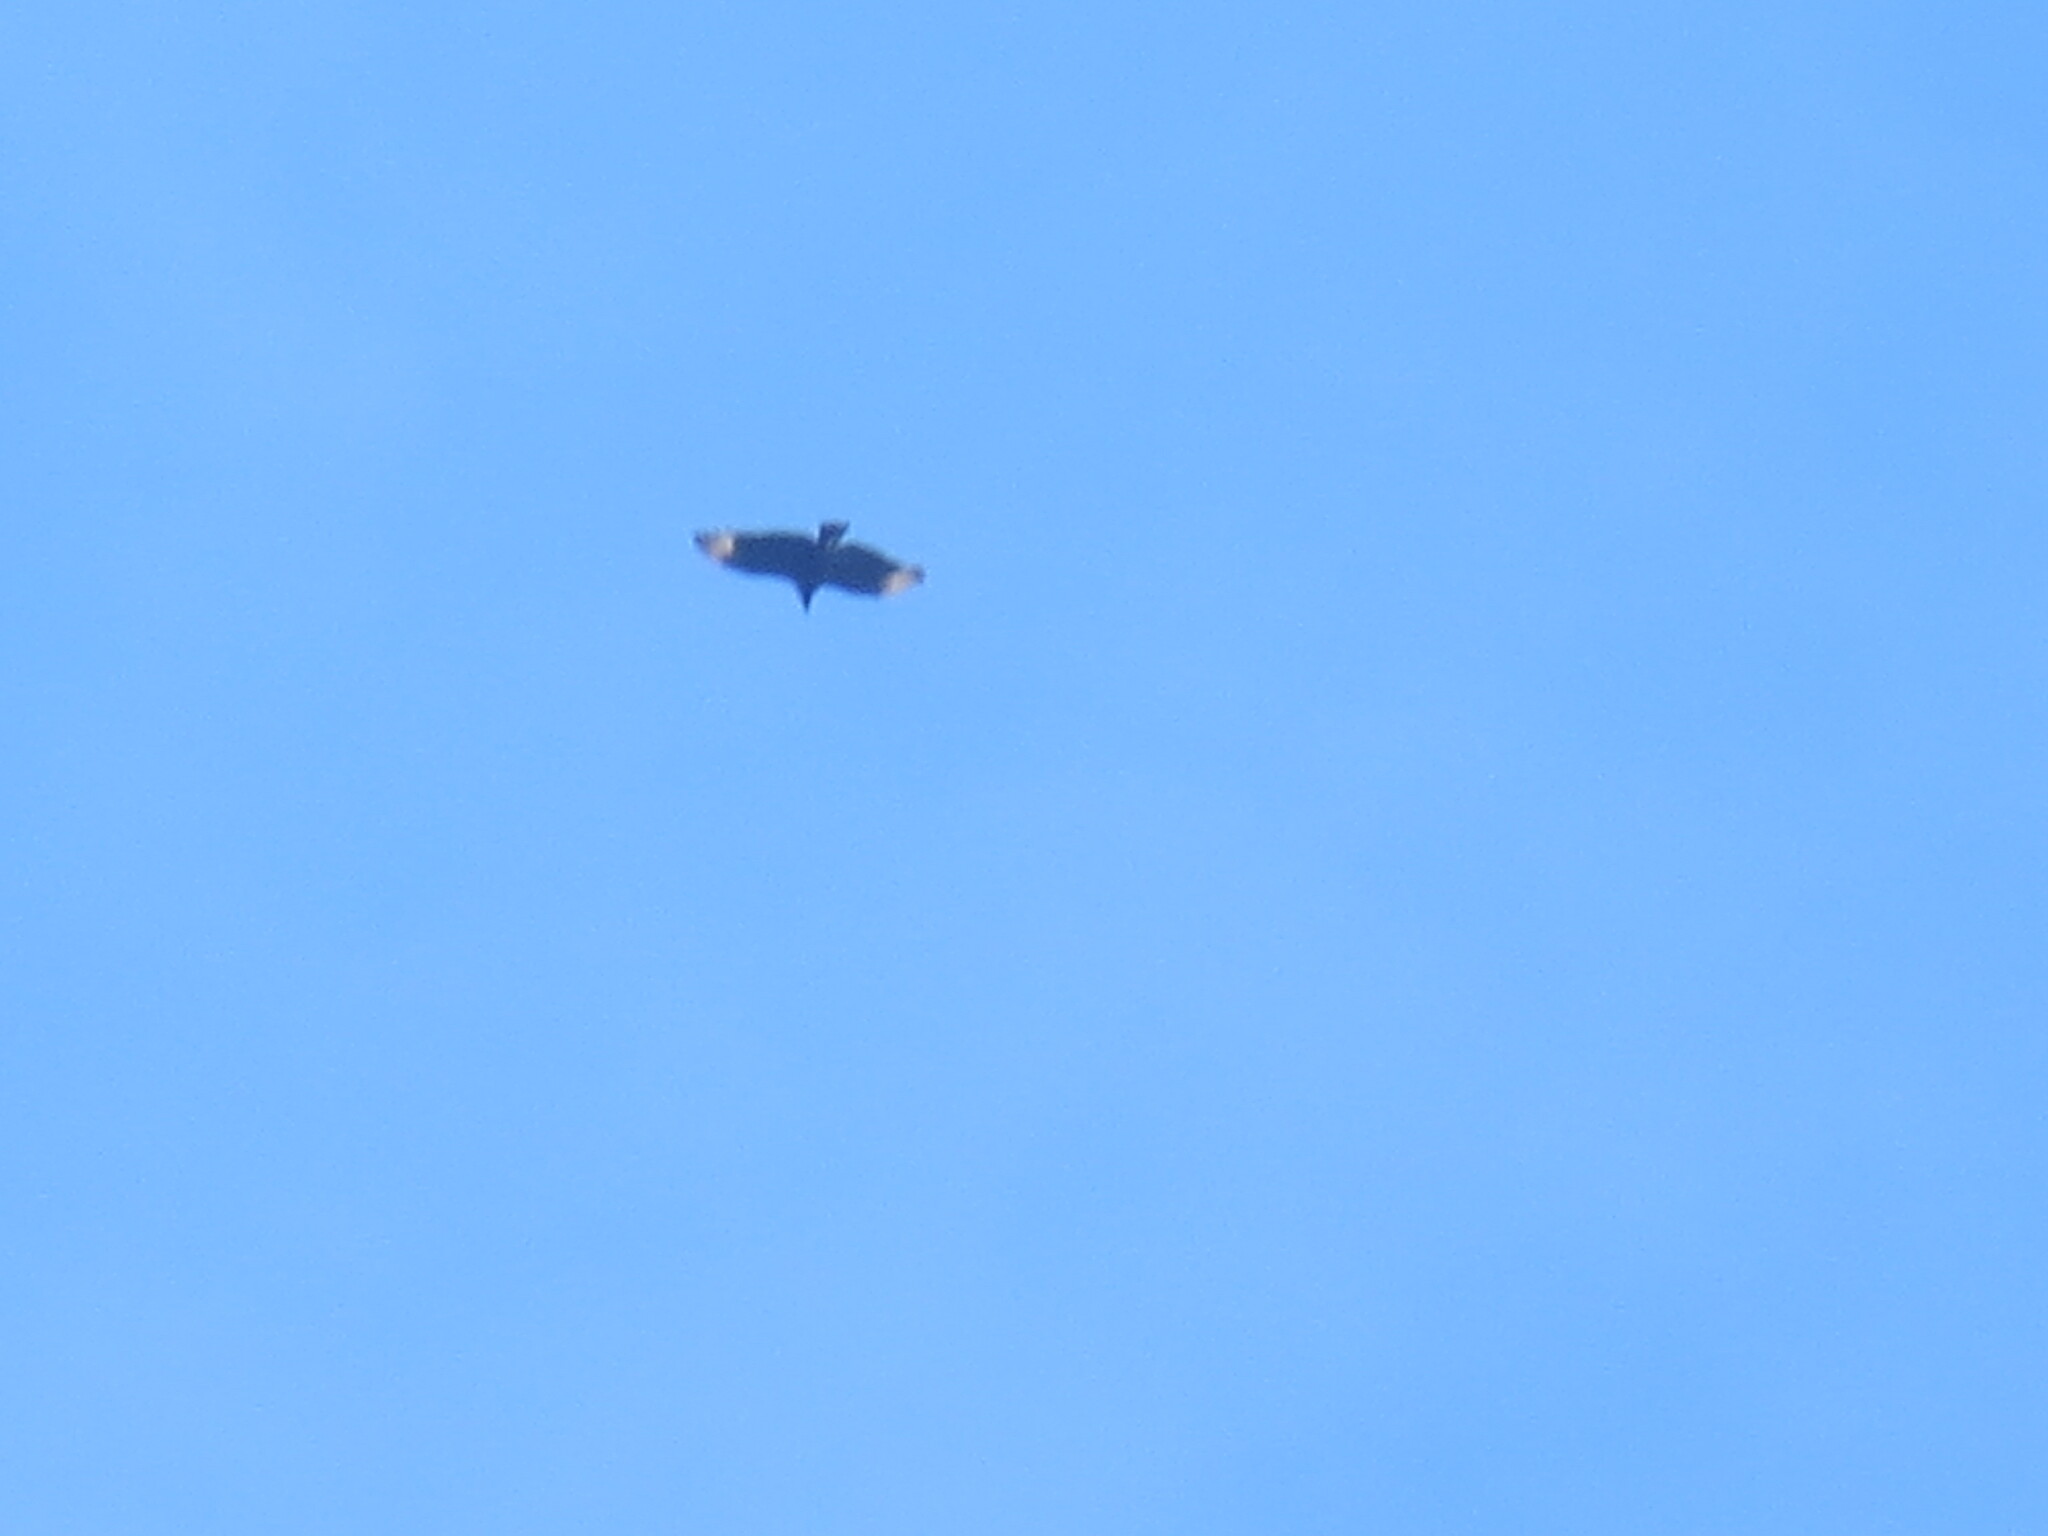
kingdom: Animalia
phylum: Chordata
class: Aves
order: Accipitriformes
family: Cathartidae
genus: Coragyps
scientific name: Coragyps atratus
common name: Black vulture
